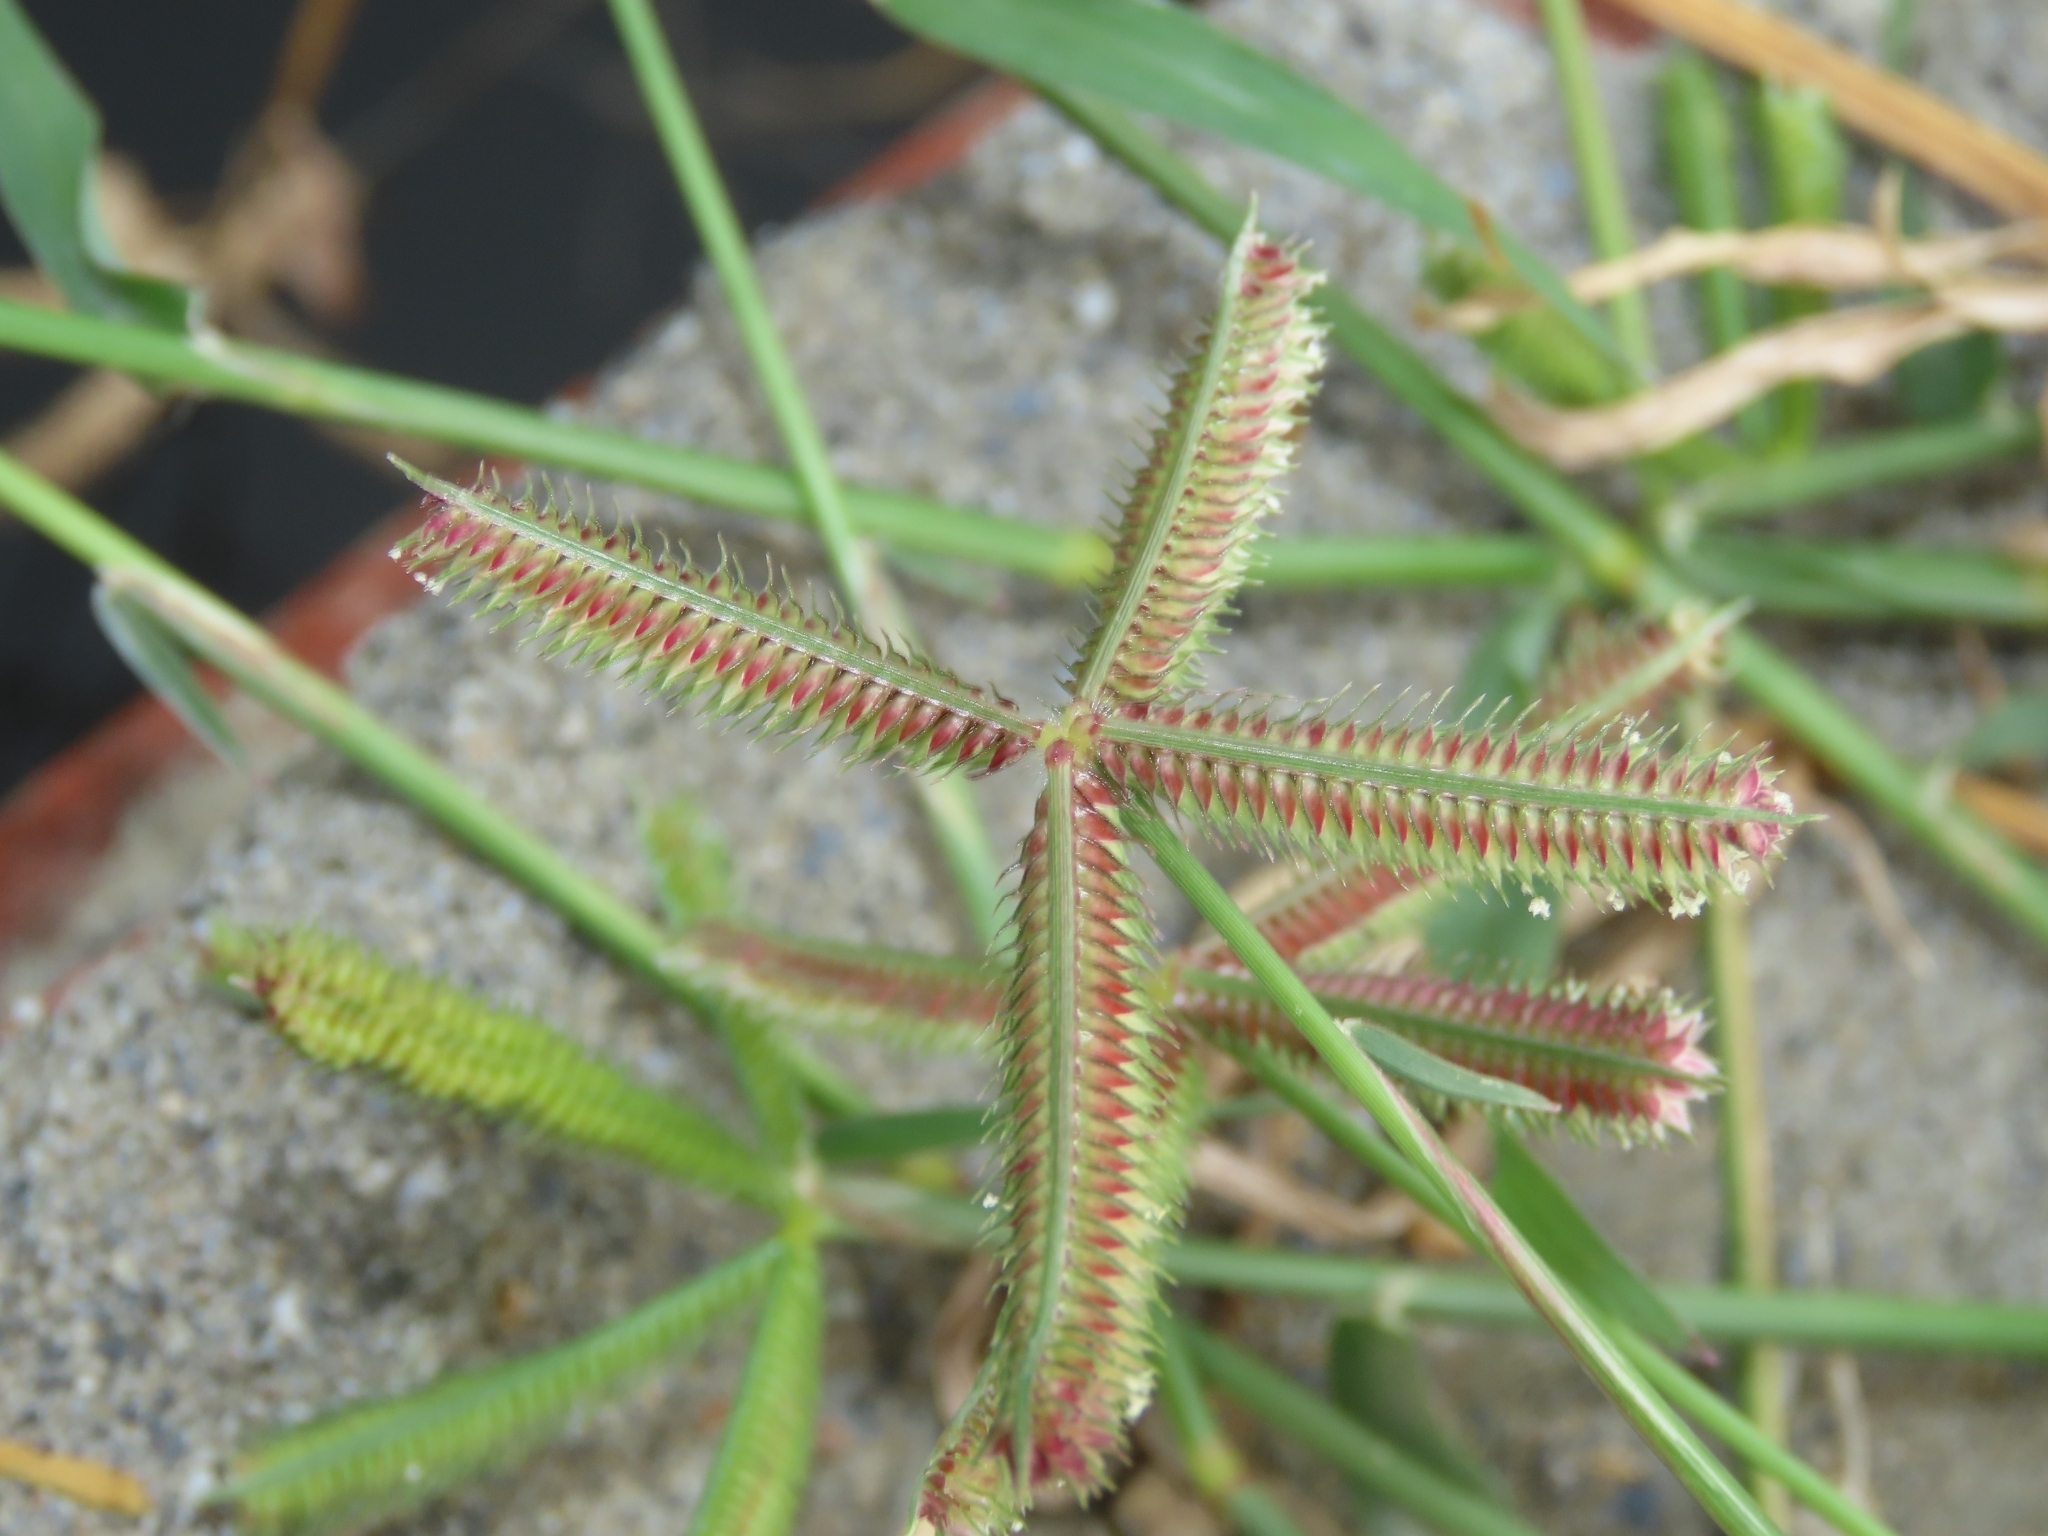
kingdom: Plantae
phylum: Tracheophyta
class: Liliopsida
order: Poales
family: Poaceae
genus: Dactyloctenium
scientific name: Dactyloctenium aegyptium
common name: Egyptian grass
